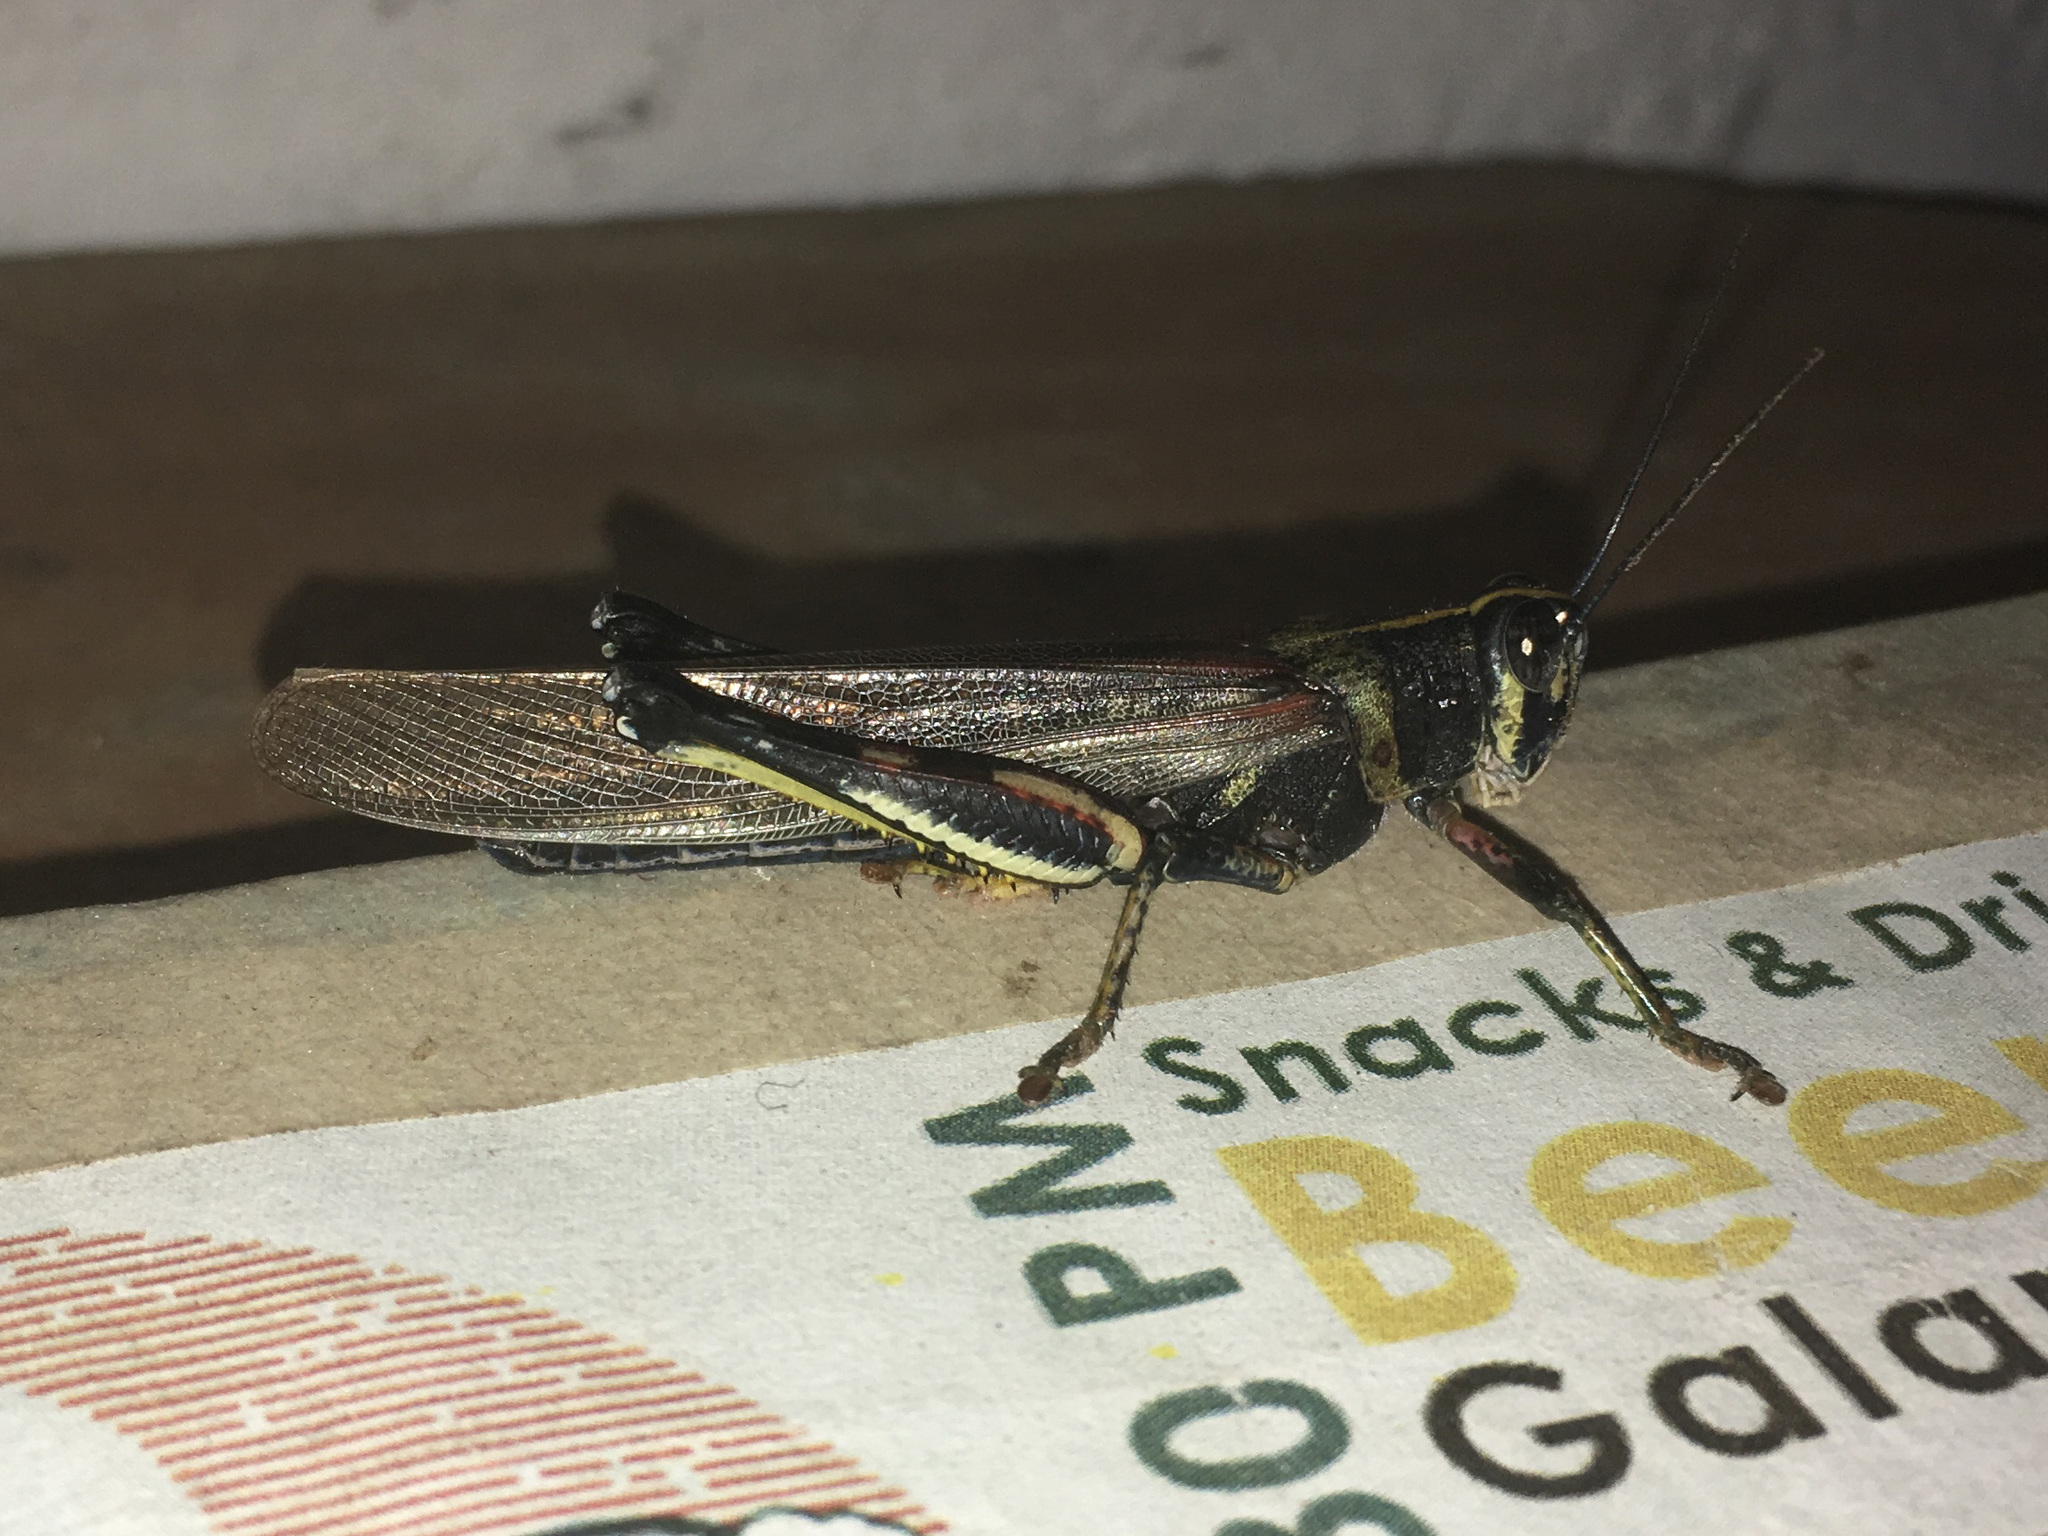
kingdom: Animalia
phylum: Arthropoda
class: Insecta
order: Orthoptera
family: Acrididae
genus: Schistocerca
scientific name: Schistocerca melanocera
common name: Large painted locust
